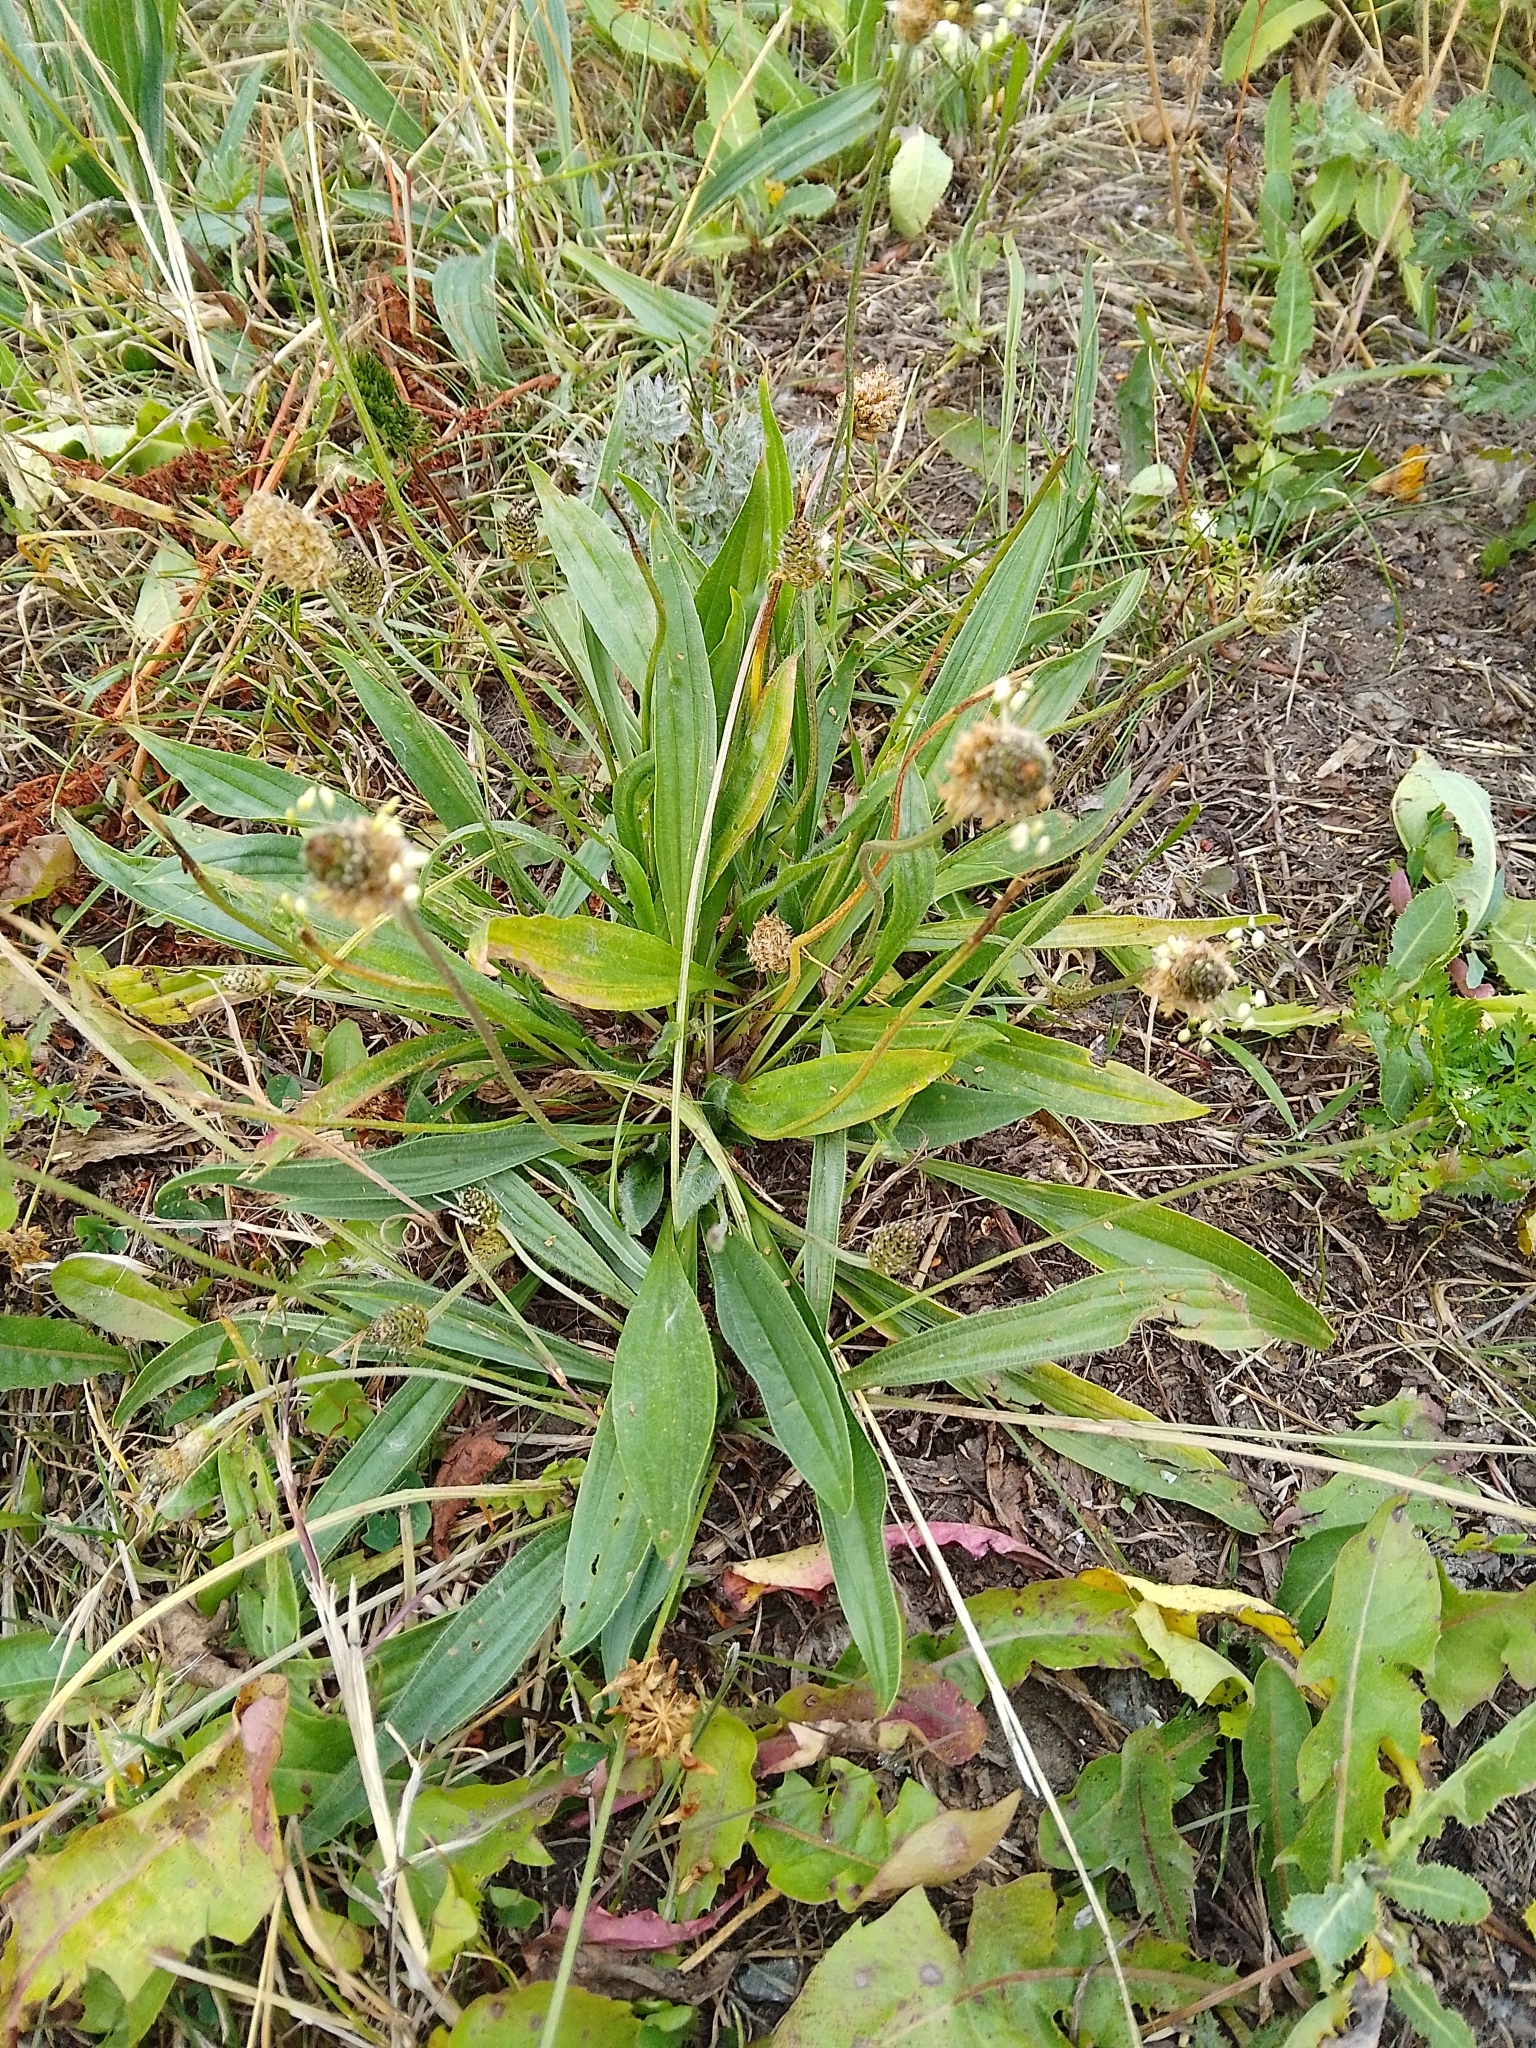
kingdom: Plantae
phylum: Tracheophyta
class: Magnoliopsida
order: Lamiales
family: Plantaginaceae
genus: Plantago
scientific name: Plantago lanceolata
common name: Ribwort plantain
